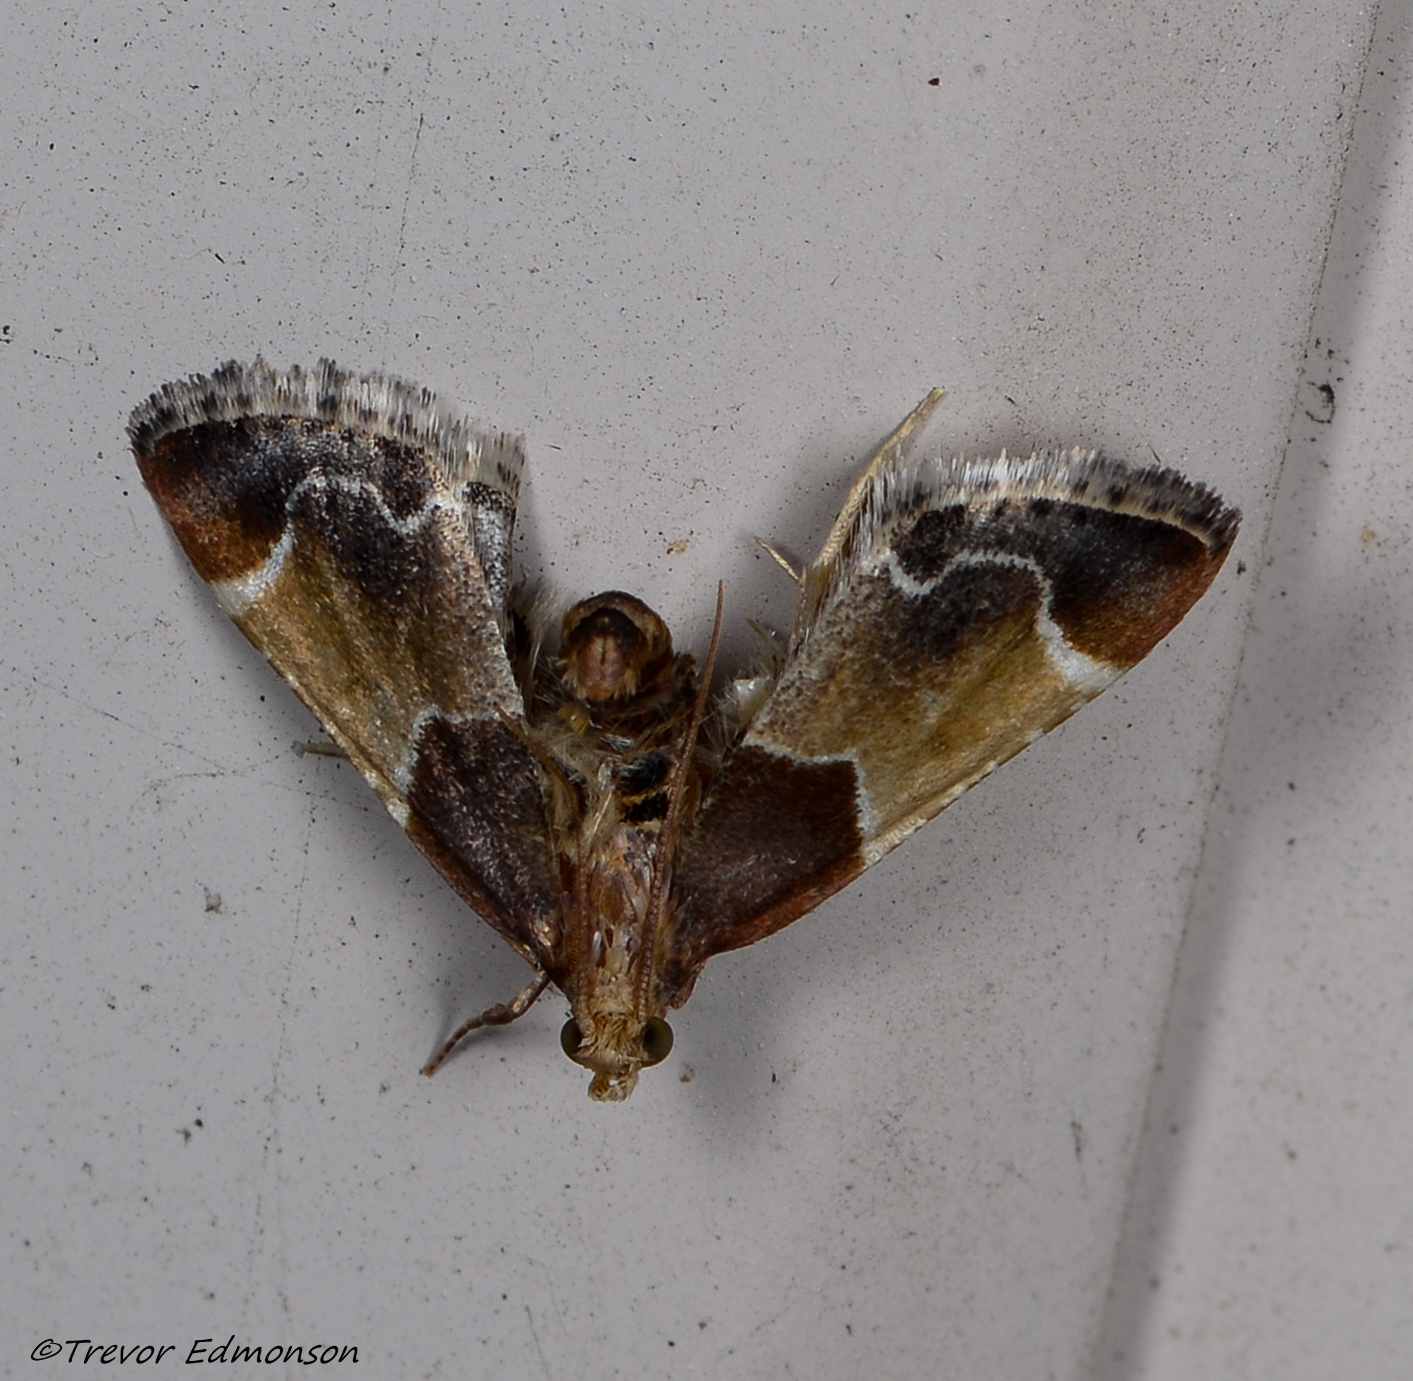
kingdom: Animalia
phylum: Arthropoda
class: Insecta
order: Lepidoptera
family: Pyralidae
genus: Pyralis
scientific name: Pyralis farinalis
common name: Meal moth
